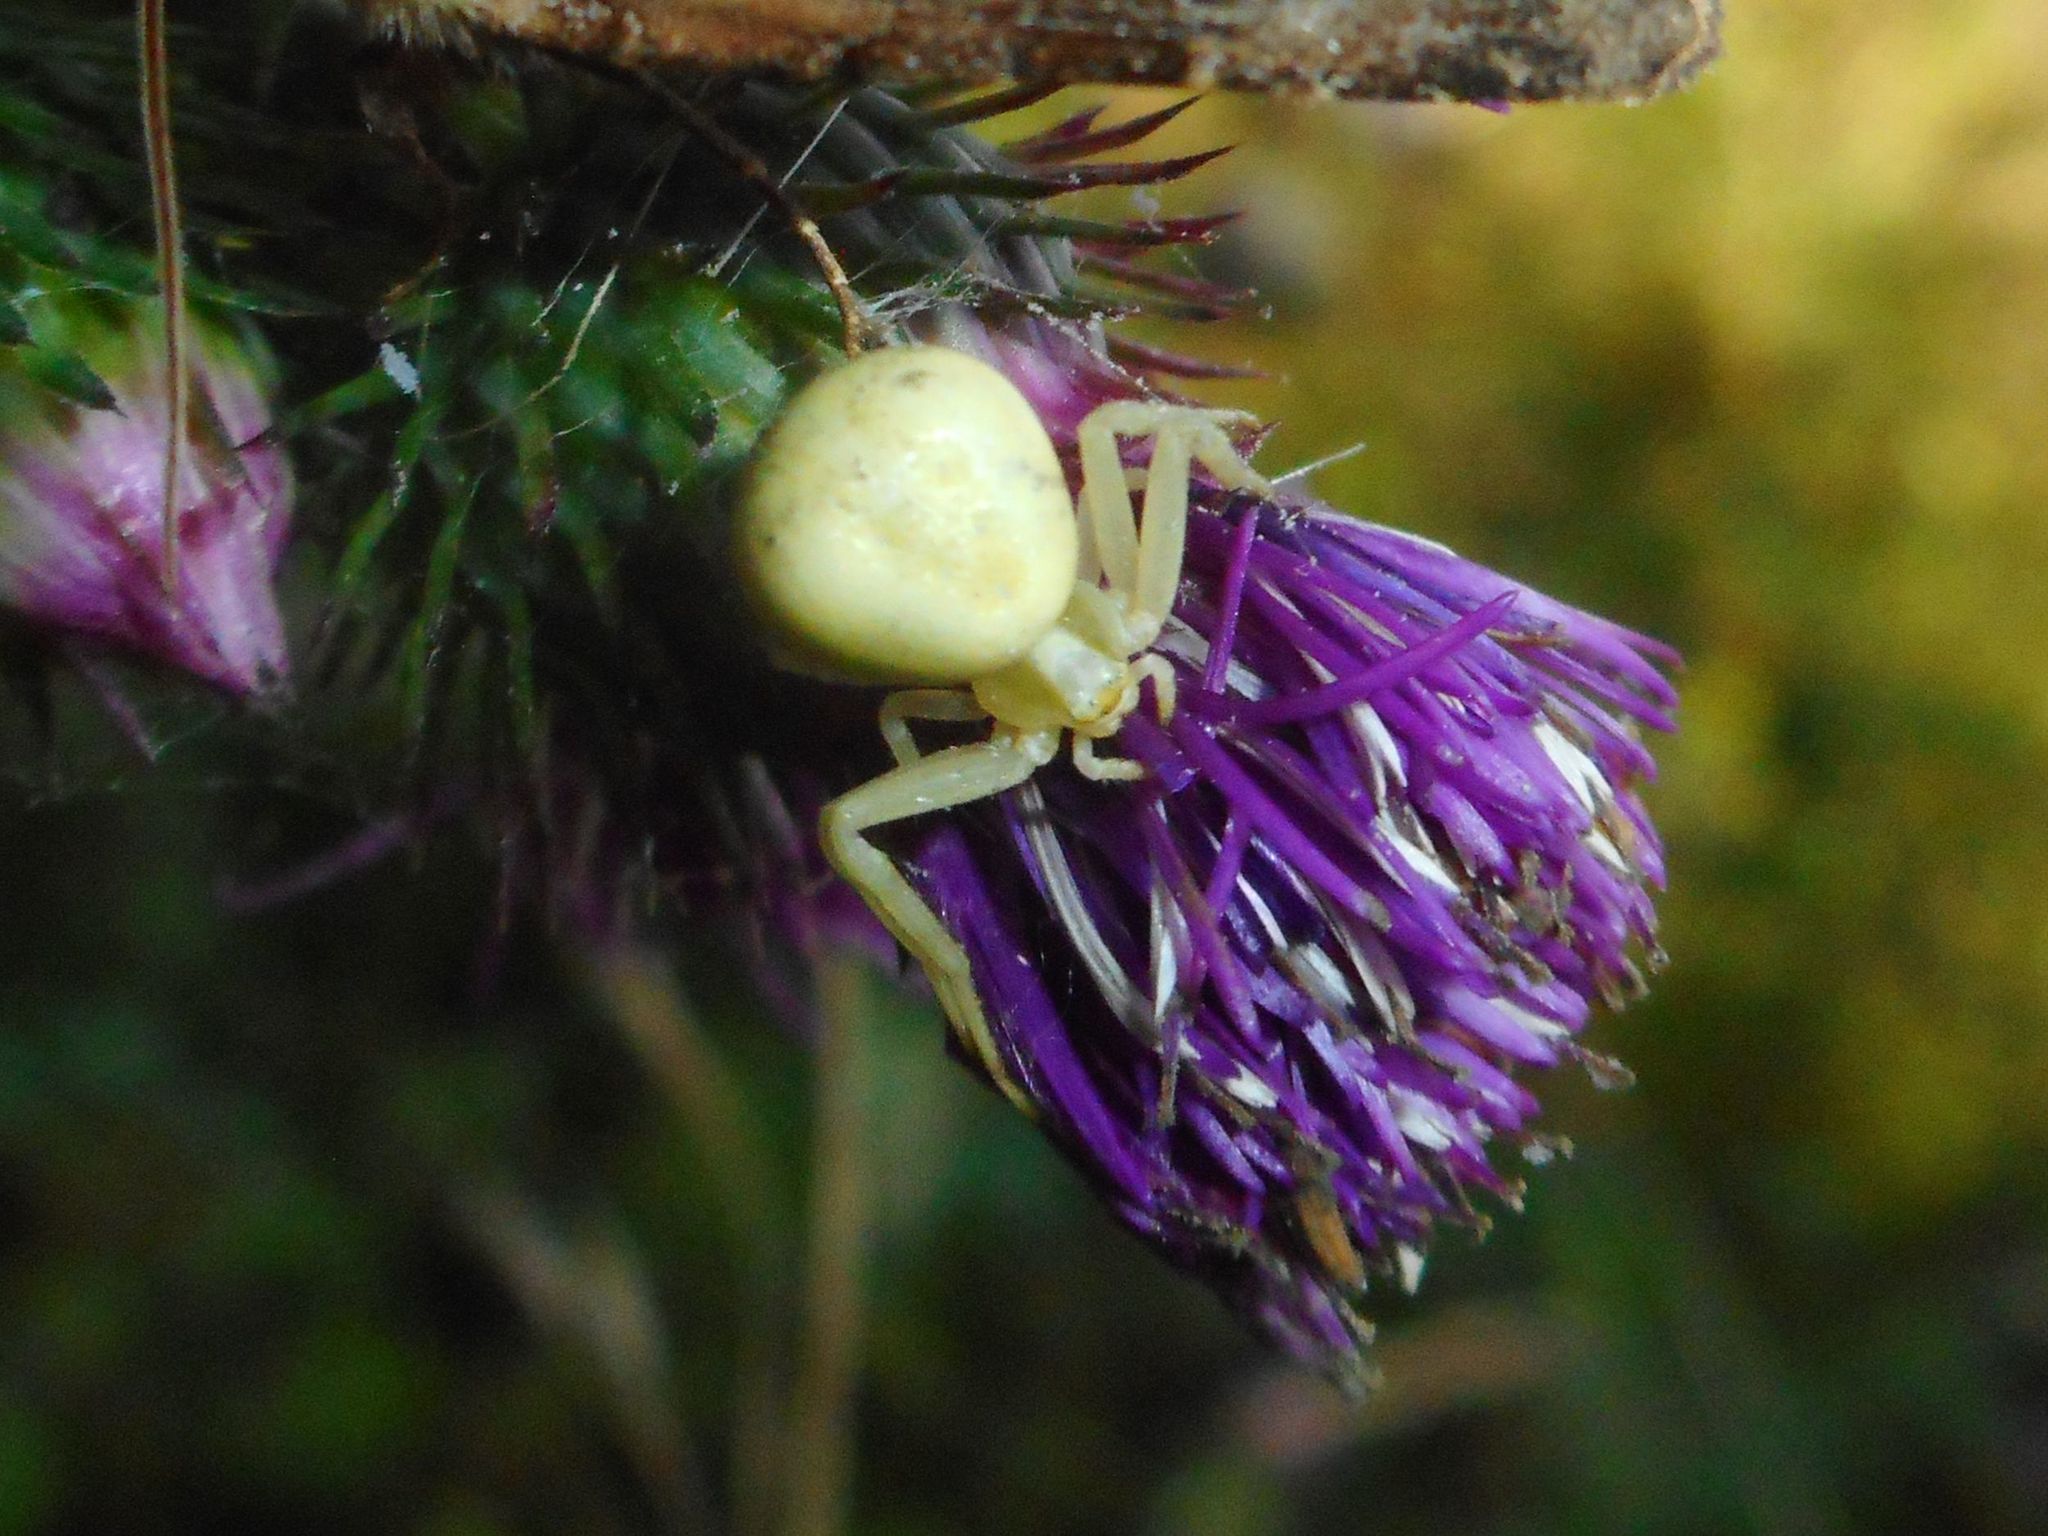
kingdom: Animalia
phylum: Arthropoda
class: Arachnida
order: Araneae
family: Thomisidae
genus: Misumena
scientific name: Misumena vatia
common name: Goldenrod crab spider
